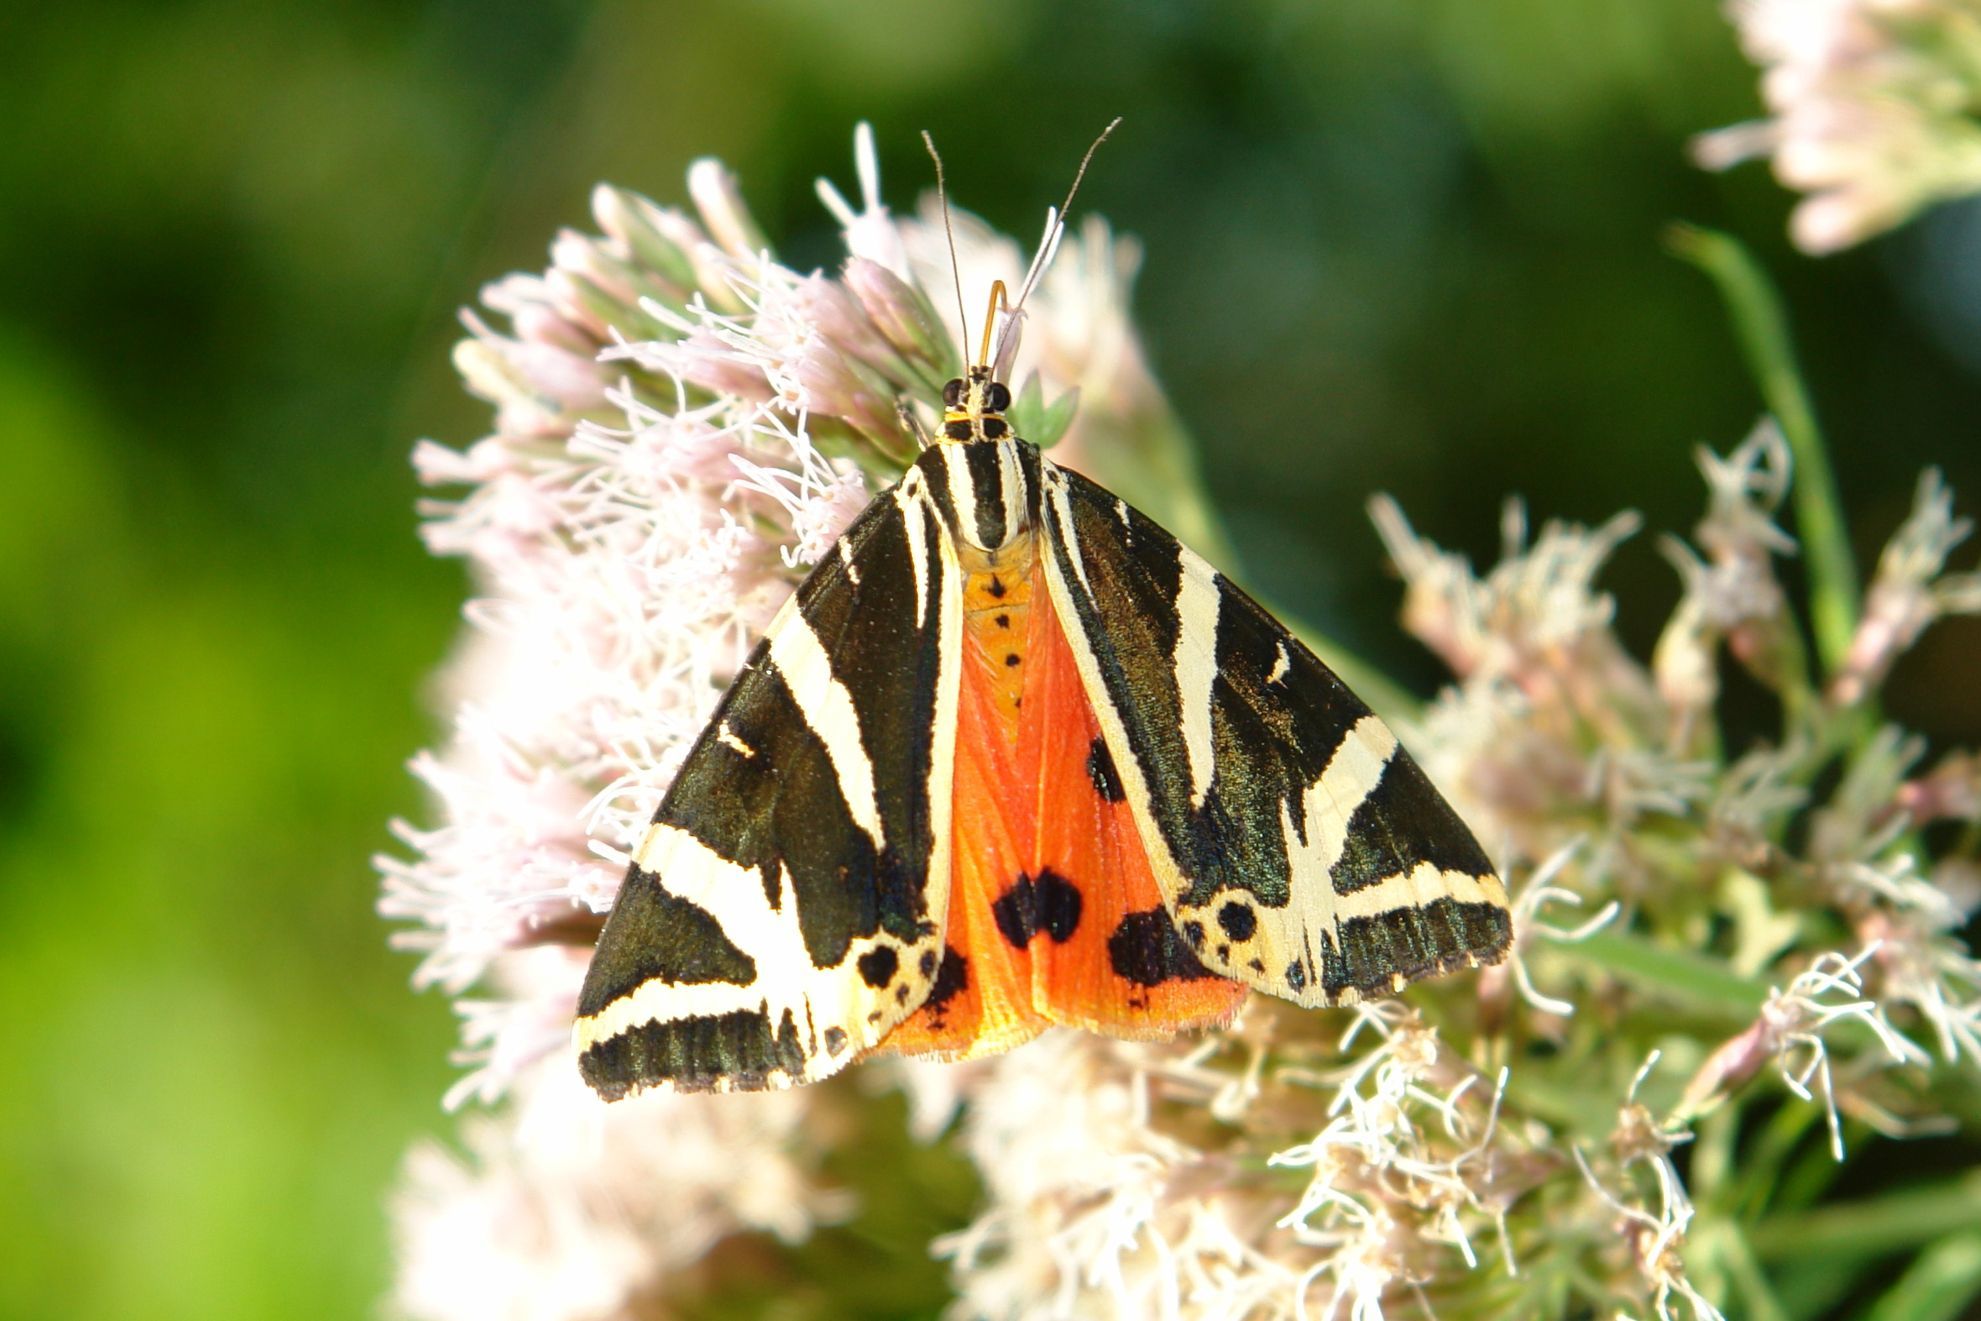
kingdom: Animalia
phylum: Arthropoda
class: Insecta
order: Lepidoptera
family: Erebidae
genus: Euplagia
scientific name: Euplagia quadripunctaria
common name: Jersey tiger
